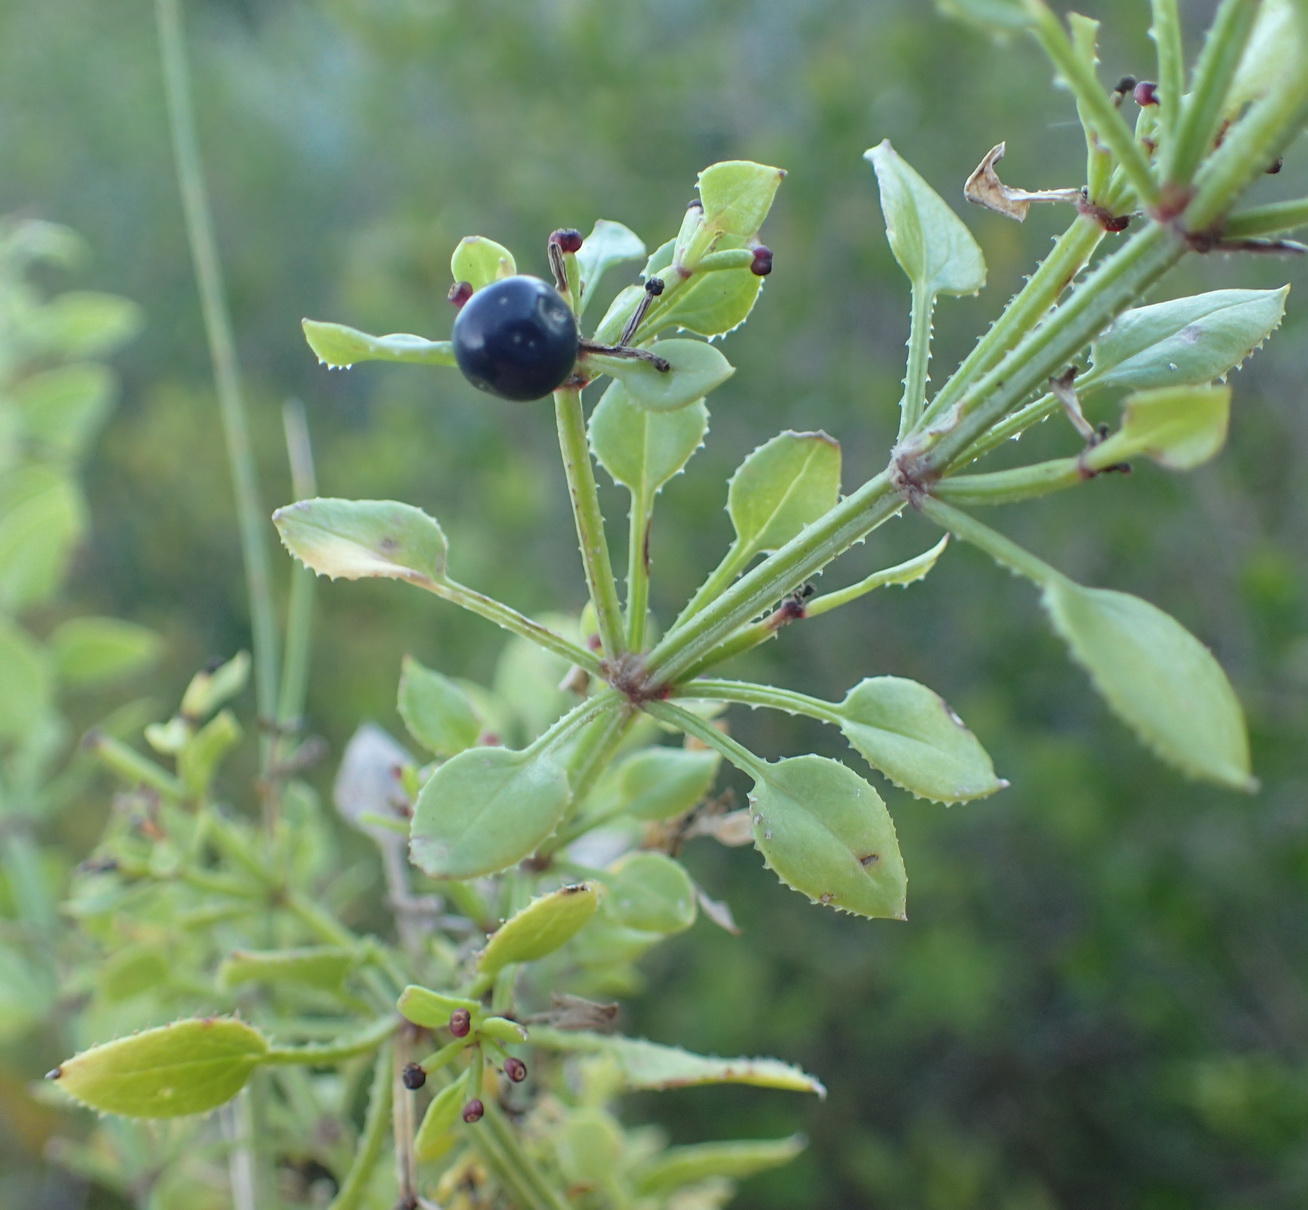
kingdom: Plantae
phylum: Tracheophyta
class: Magnoliopsida
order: Gentianales
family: Rubiaceae
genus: Rubia
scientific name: Rubia petiolaris
